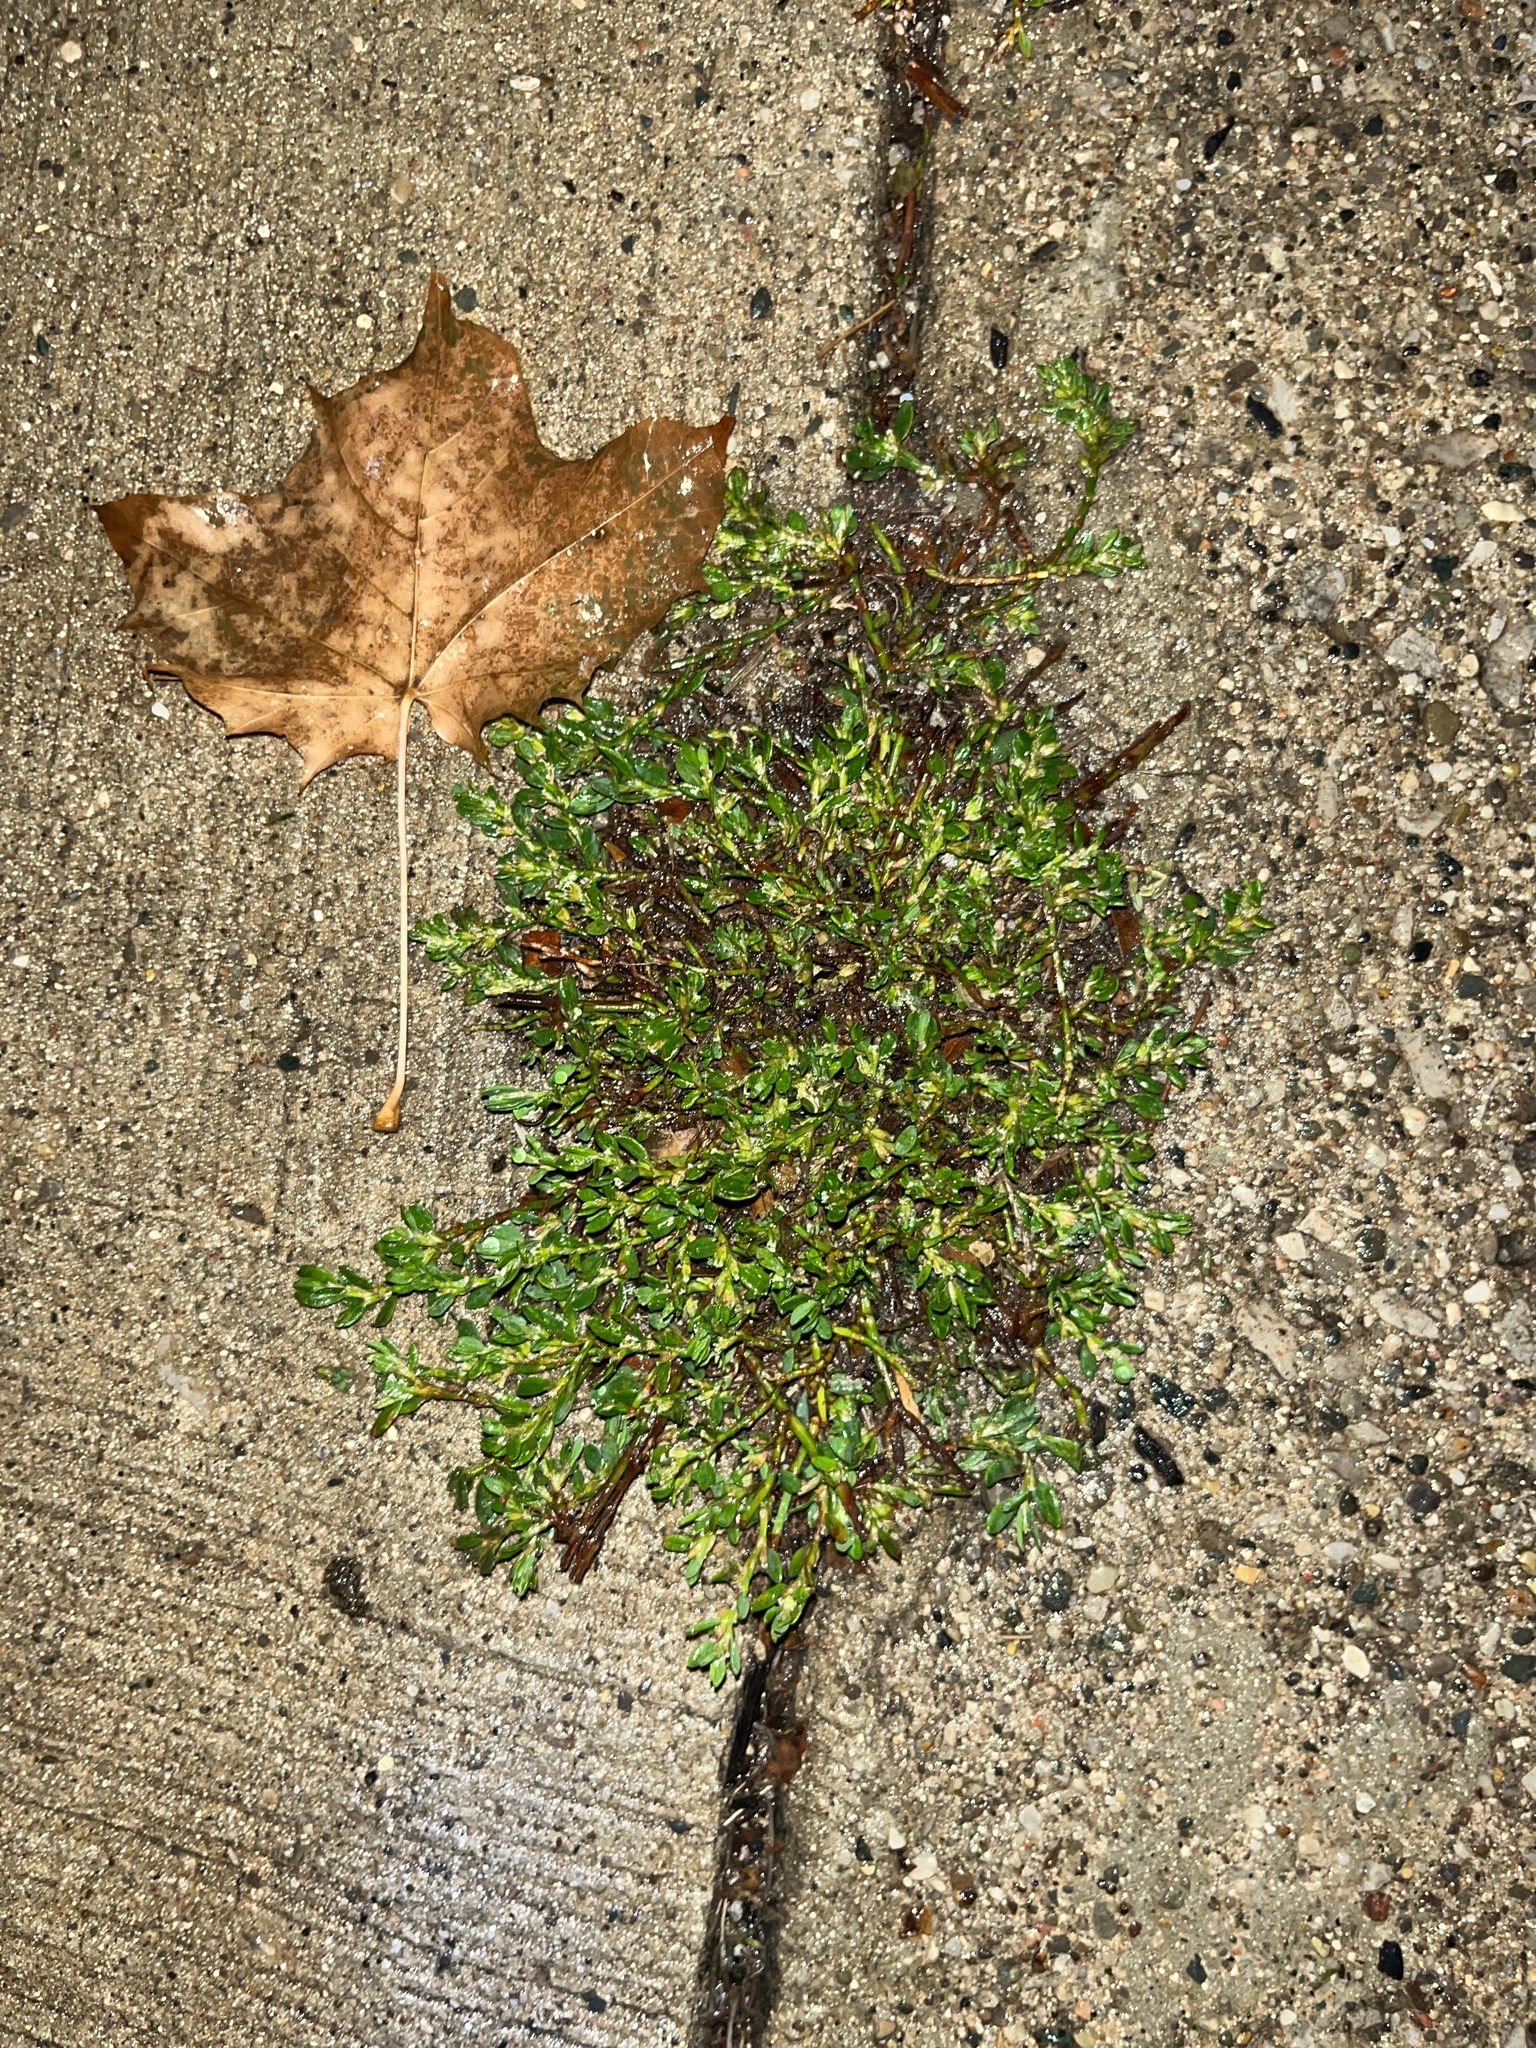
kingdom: Plantae
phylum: Tracheophyta
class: Magnoliopsida
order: Caryophyllales
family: Polygonaceae
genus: Polygonum
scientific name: Polygonum aviculare
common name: Prostrate knotweed
